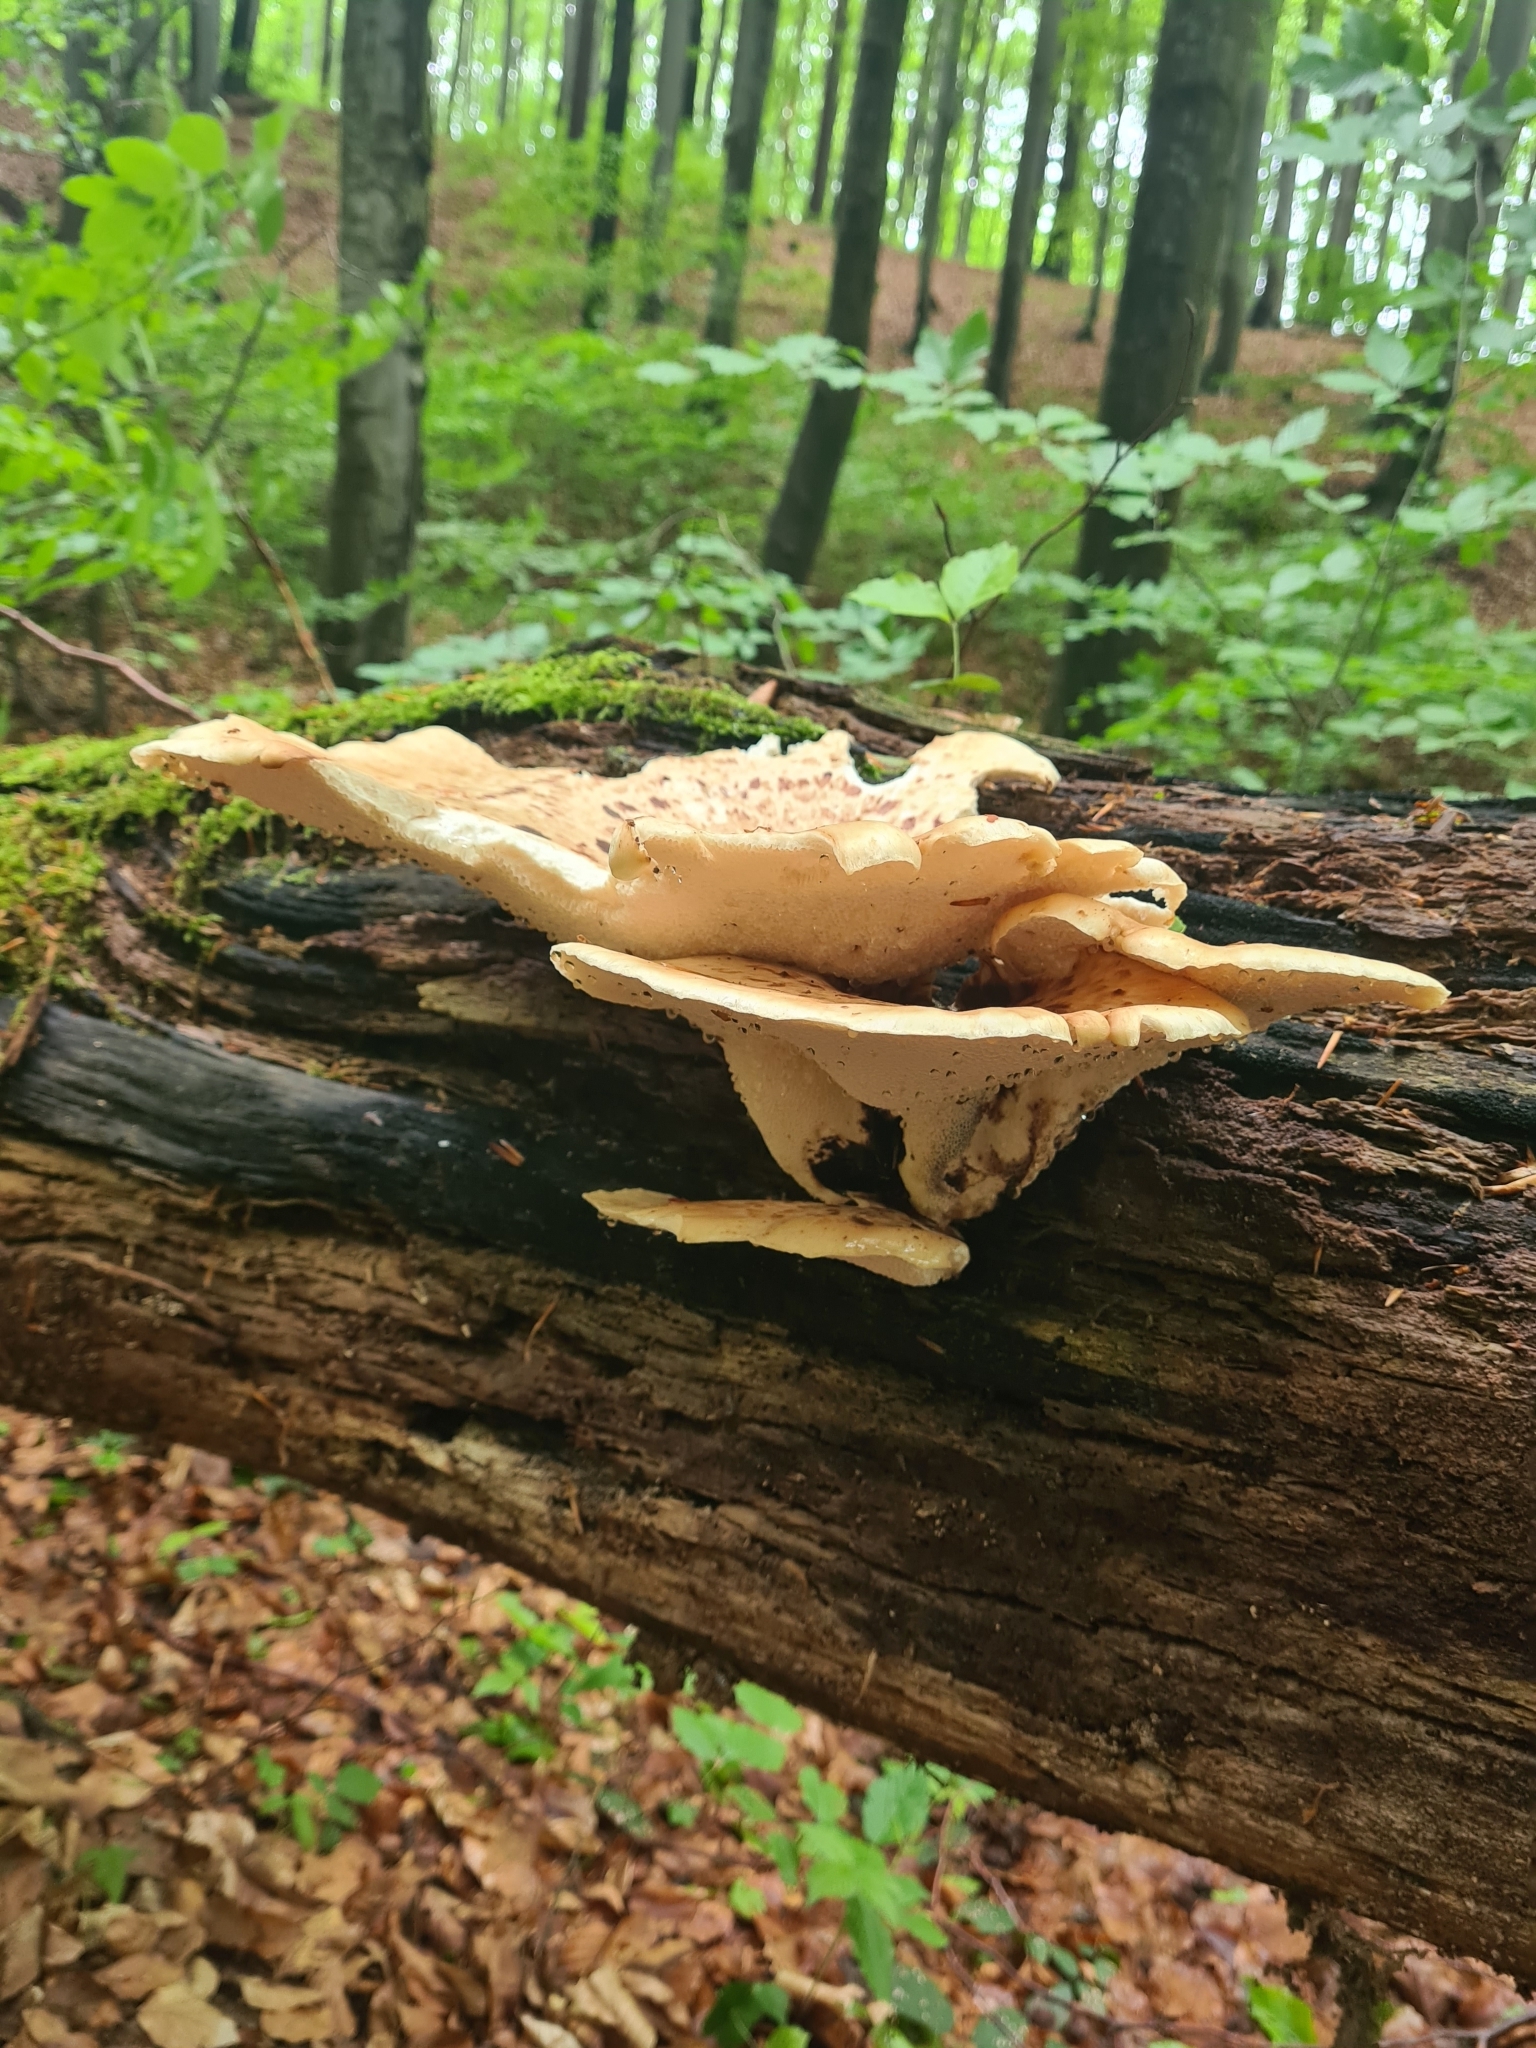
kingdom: Fungi
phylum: Basidiomycota
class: Agaricomycetes
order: Polyporales
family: Polyporaceae
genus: Cerioporus
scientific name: Cerioporus squamosus
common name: Dryad's saddle
